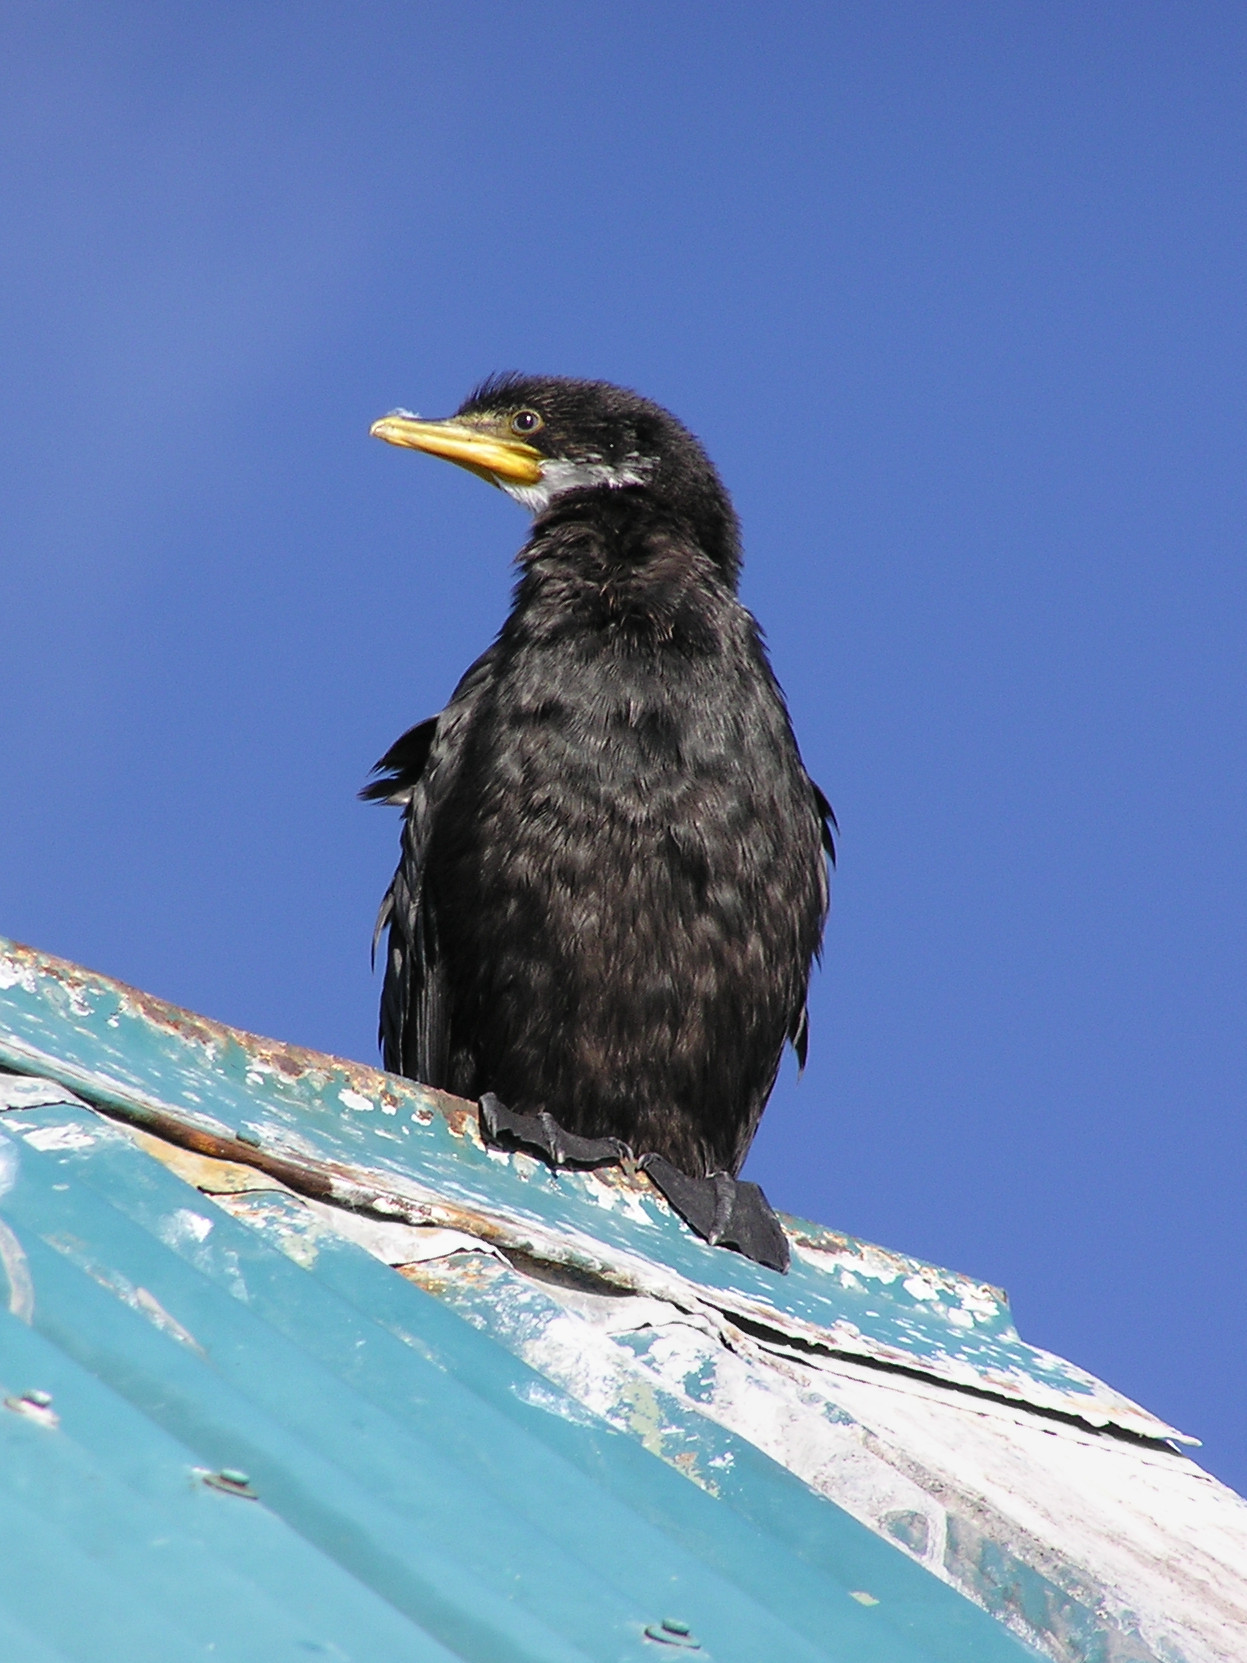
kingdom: Animalia
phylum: Chordata
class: Aves
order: Suliformes
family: Phalacrocoracidae
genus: Microcarbo
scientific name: Microcarbo melanoleucos
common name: Little pied cormorant
